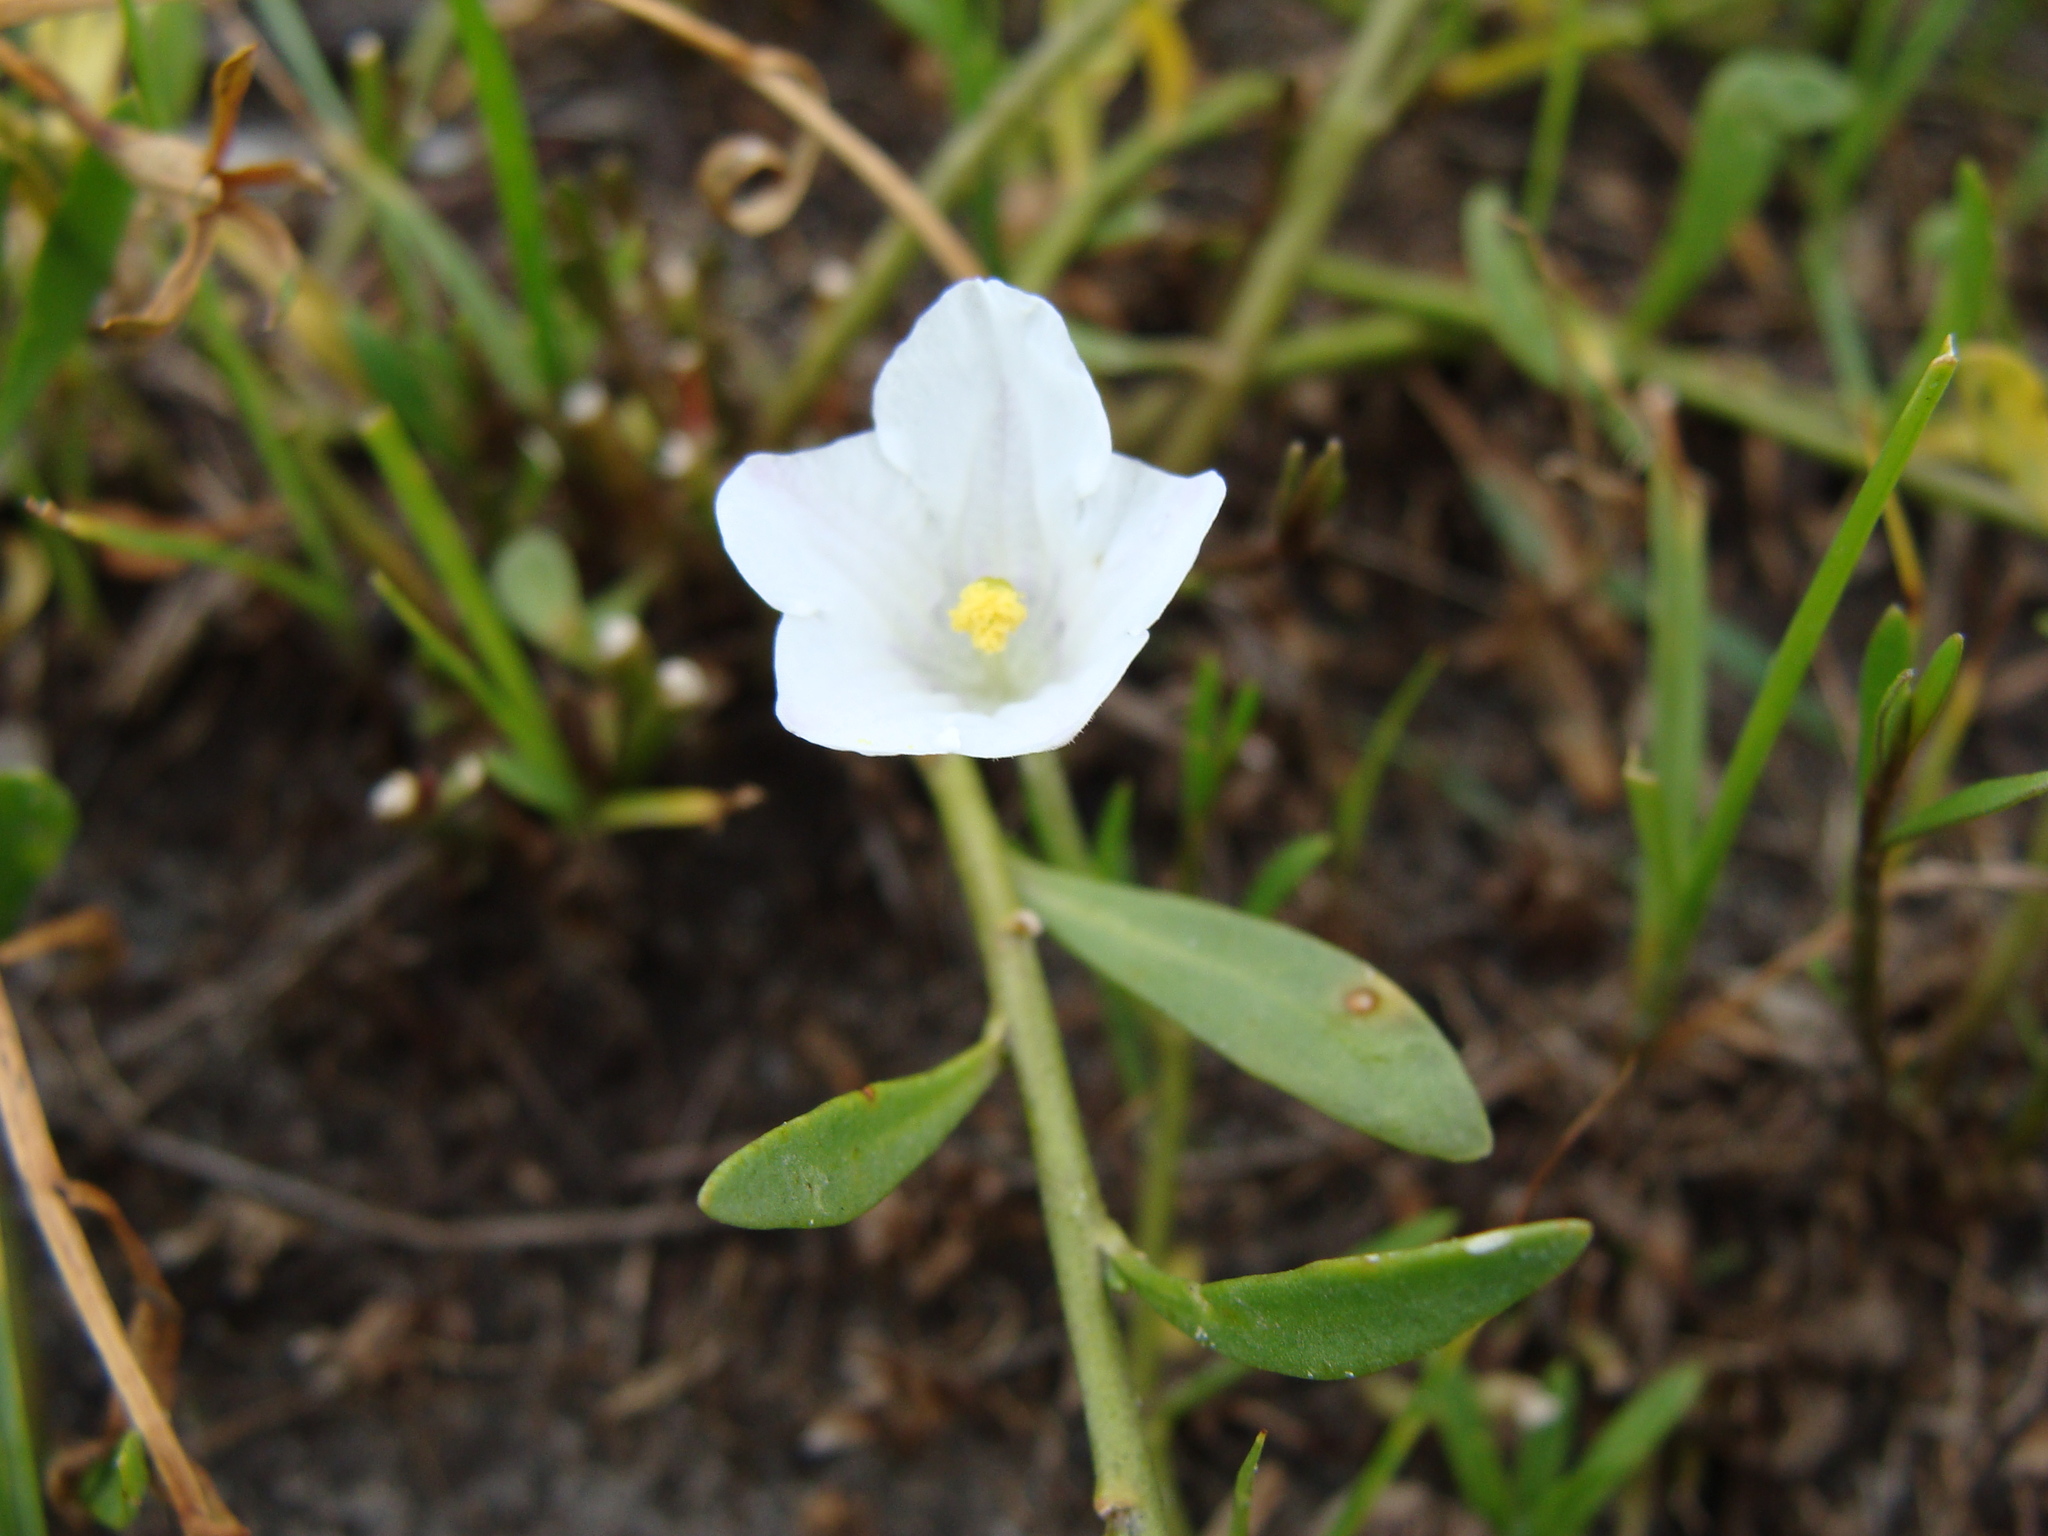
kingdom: Plantae
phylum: Tracheophyta
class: Magnoliopsida
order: Solanales
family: Solanaceae
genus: Salpiglossis
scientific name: Salpiglossis erecta
